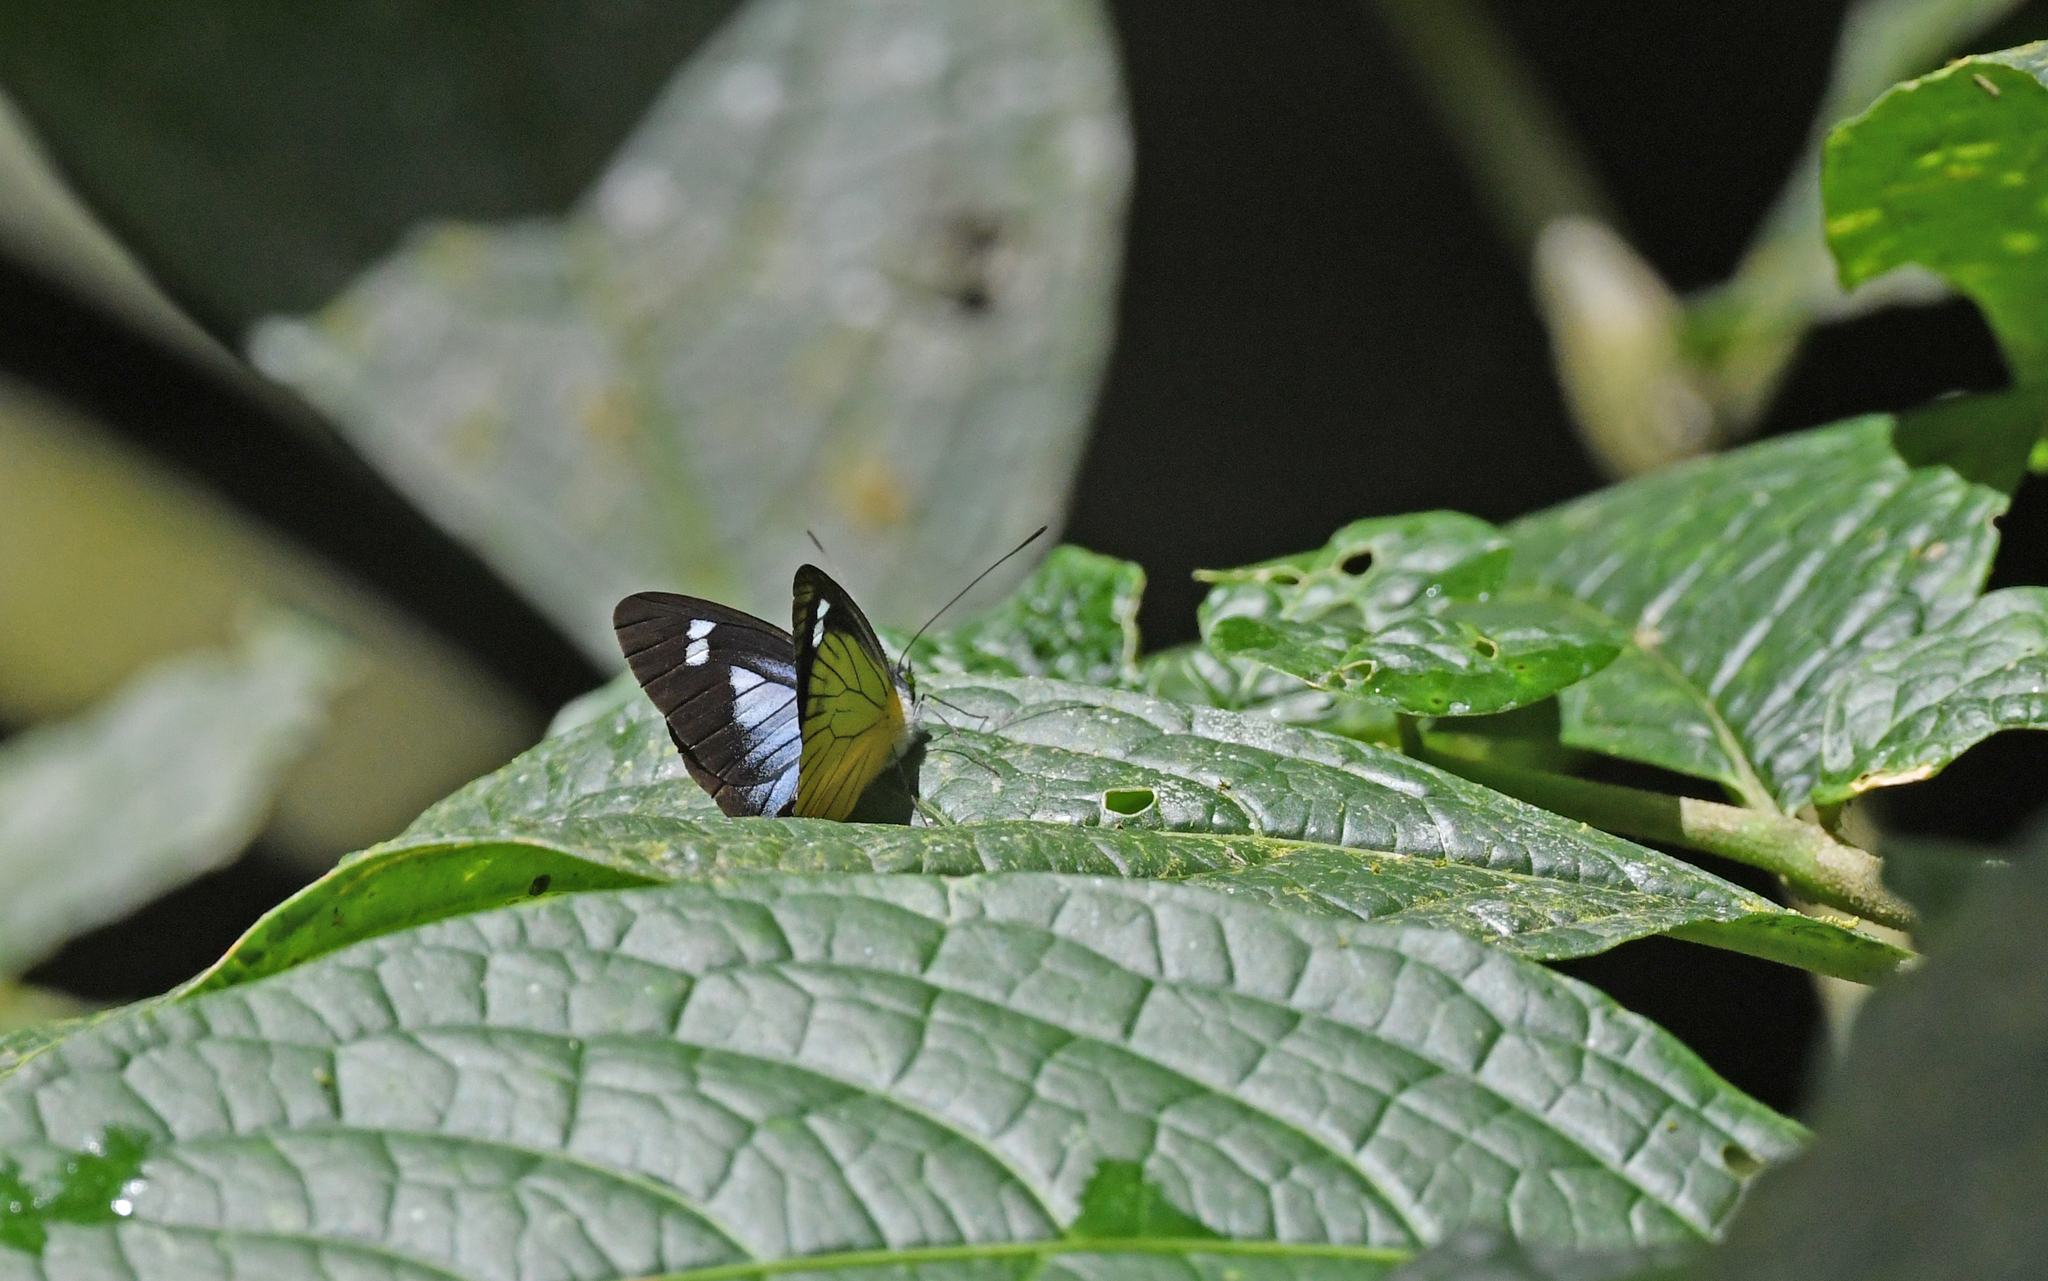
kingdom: Animalia
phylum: Arthropoda
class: Insecta
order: Lepidoptera
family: Pieridae
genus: Leptophobia
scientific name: Leptophobia caesia
